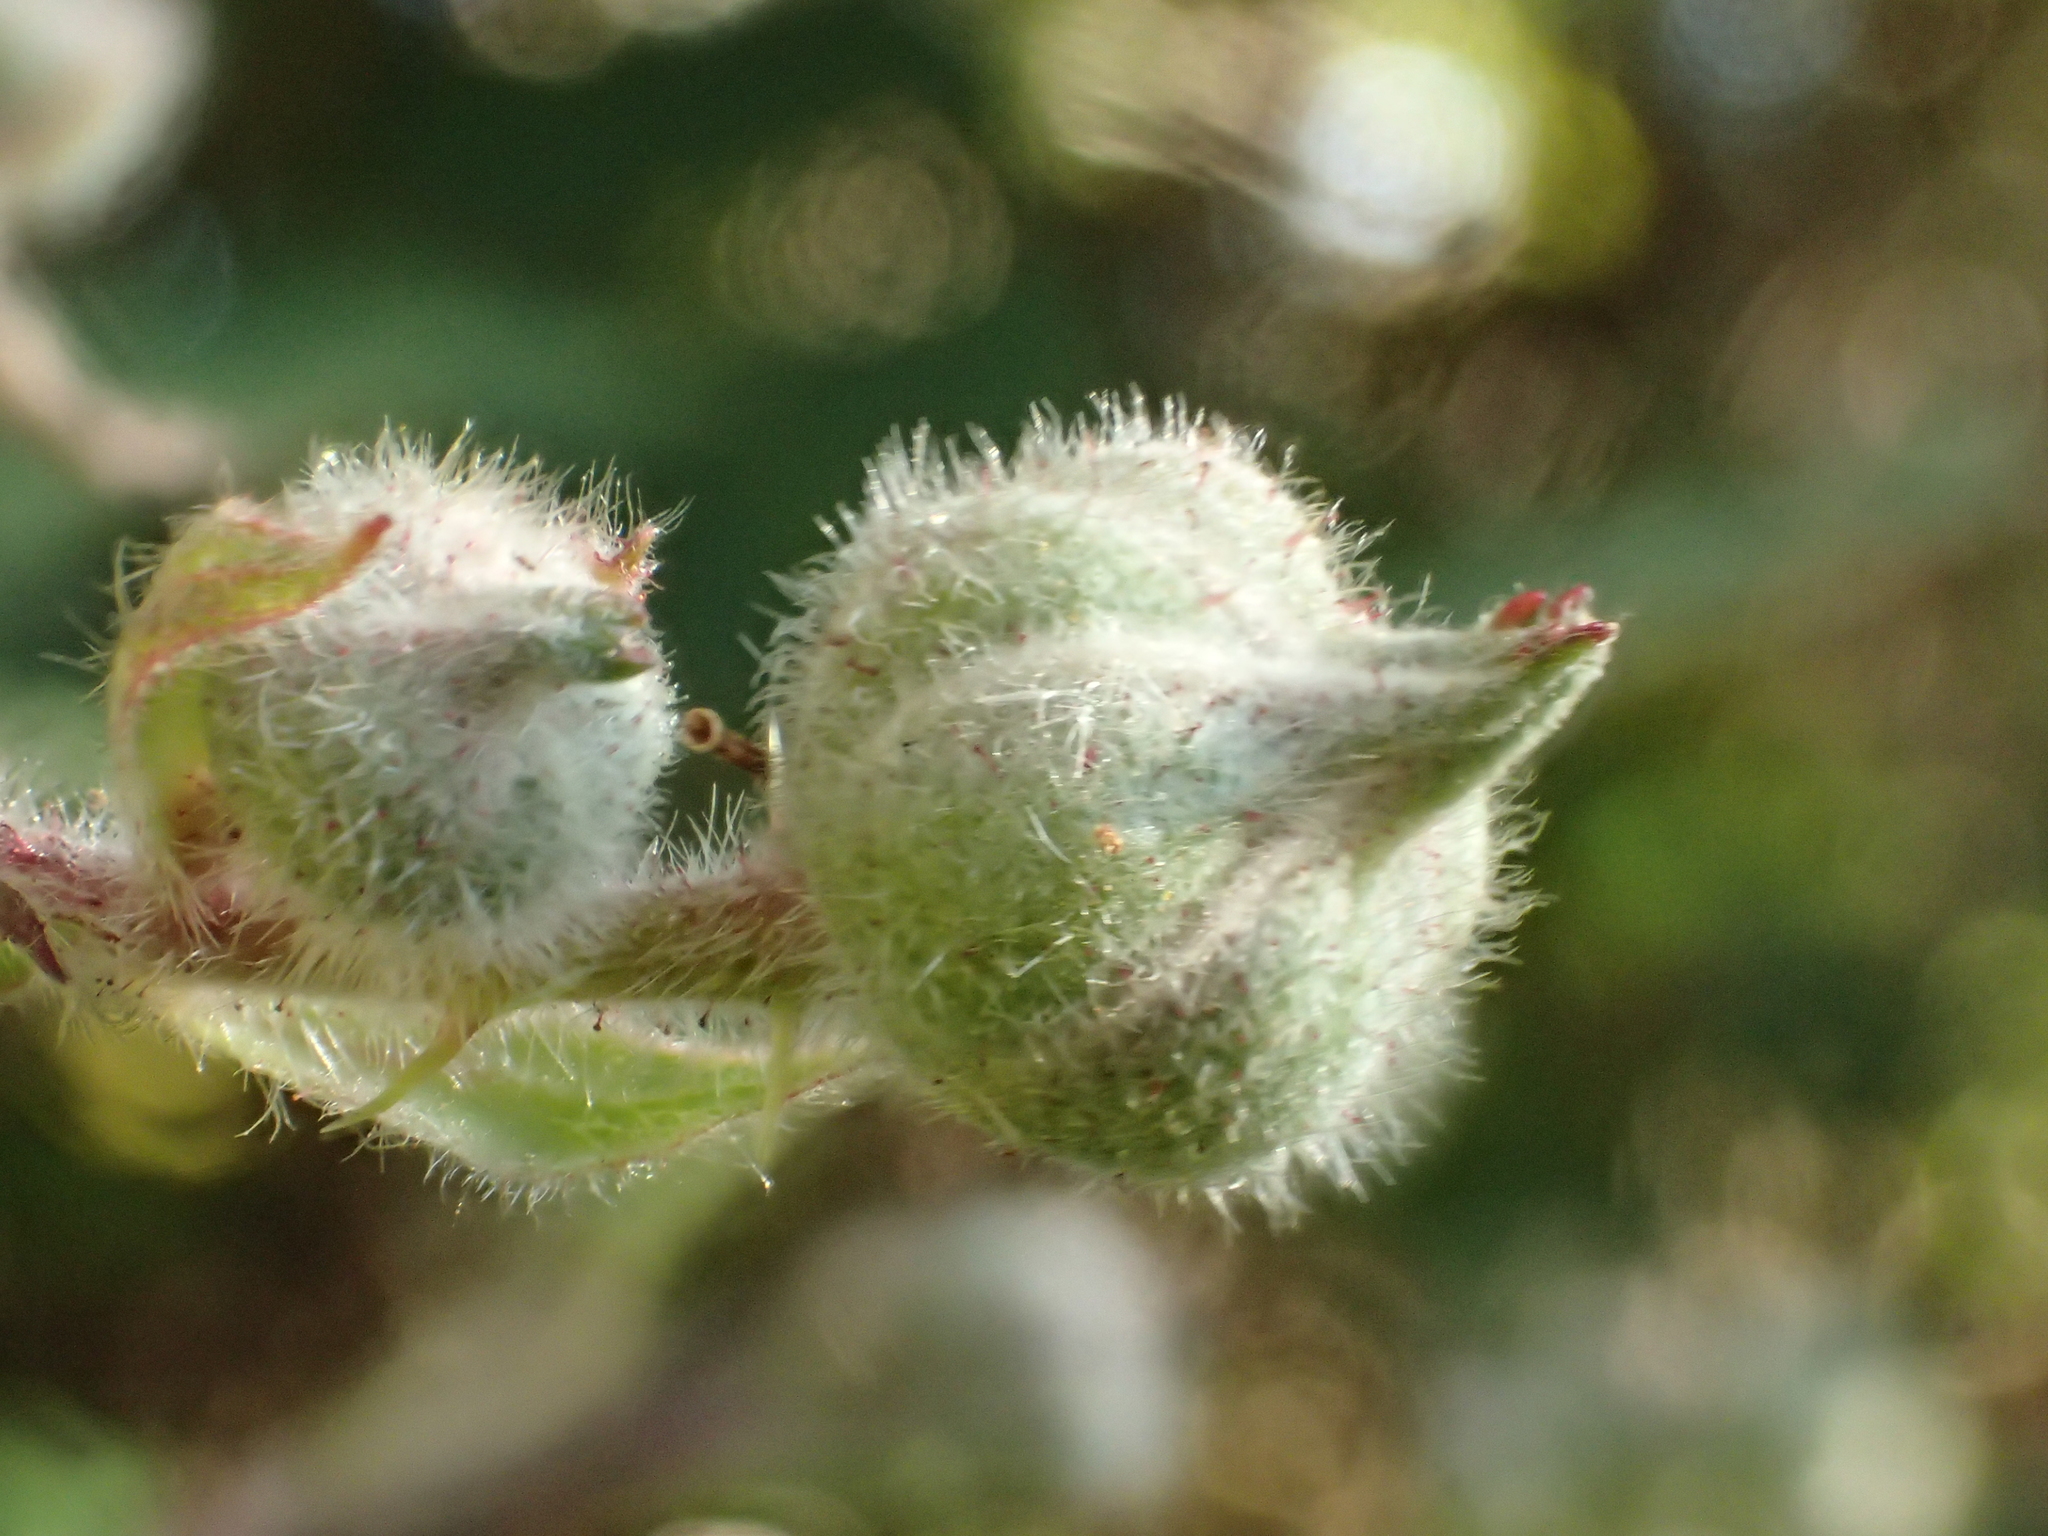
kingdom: Plantae
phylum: Tracheophyta
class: Magnoliopsida
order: Rosales
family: Rosaceae
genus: Rubus
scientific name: Rubus vestitus
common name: European blackberry
